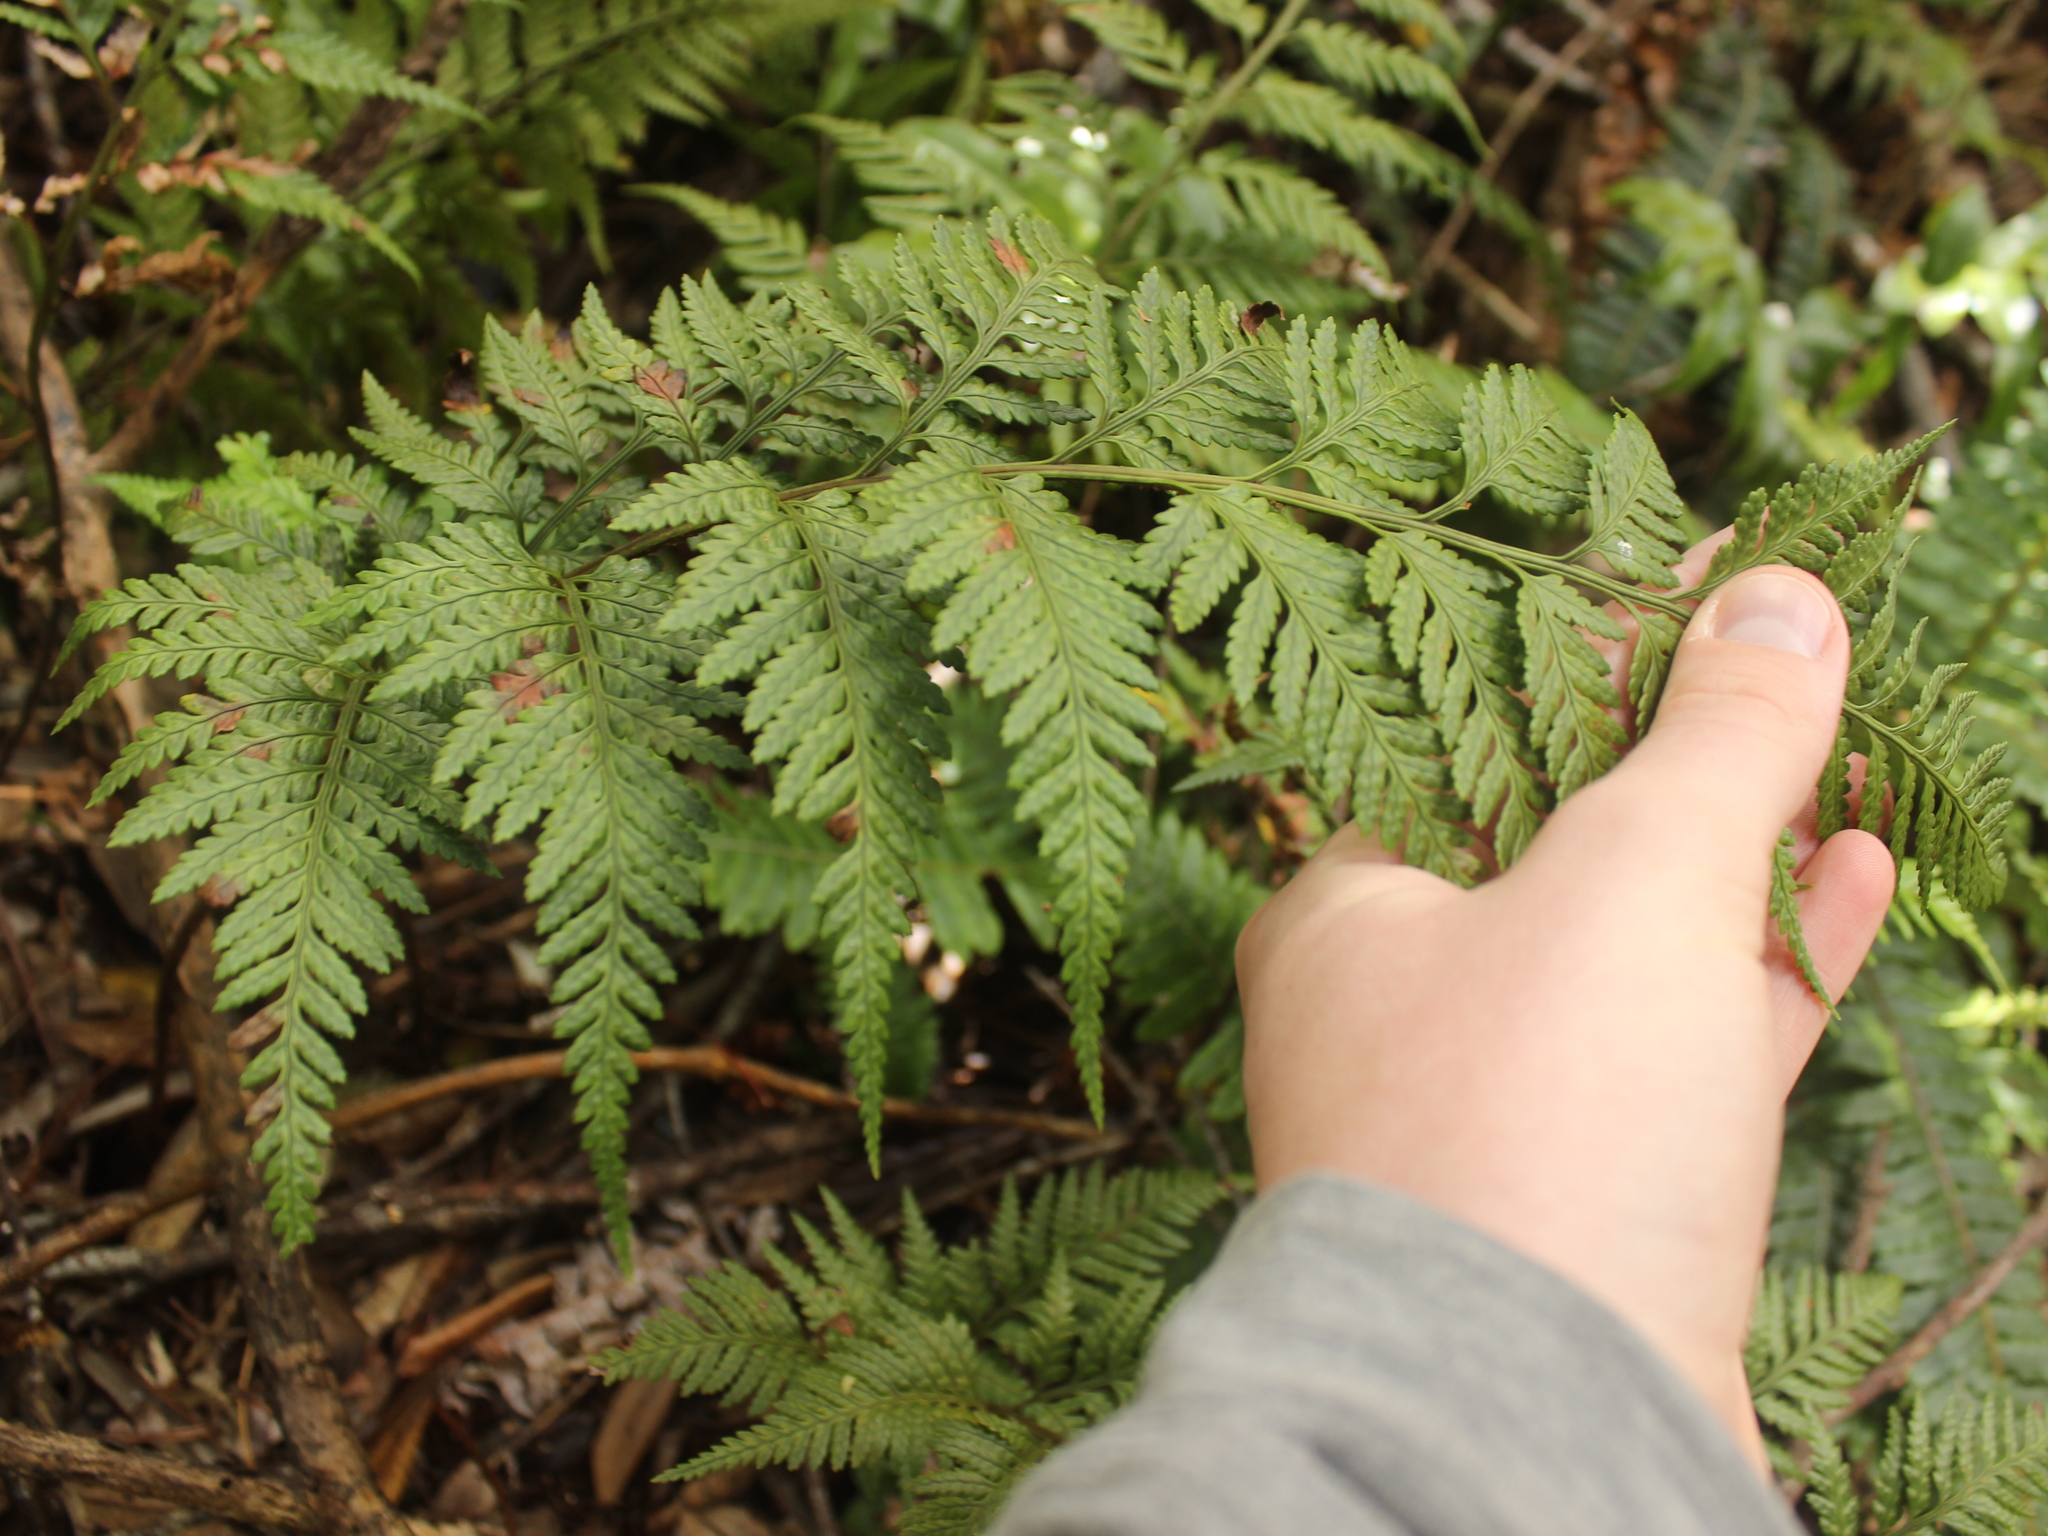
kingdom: Plantae
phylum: Tracheophyta
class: Polypodiopsida
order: Polypodiales
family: Dryopteridaceae
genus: Rumohra
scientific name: Rumohra adiantiformis
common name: Leather fern
